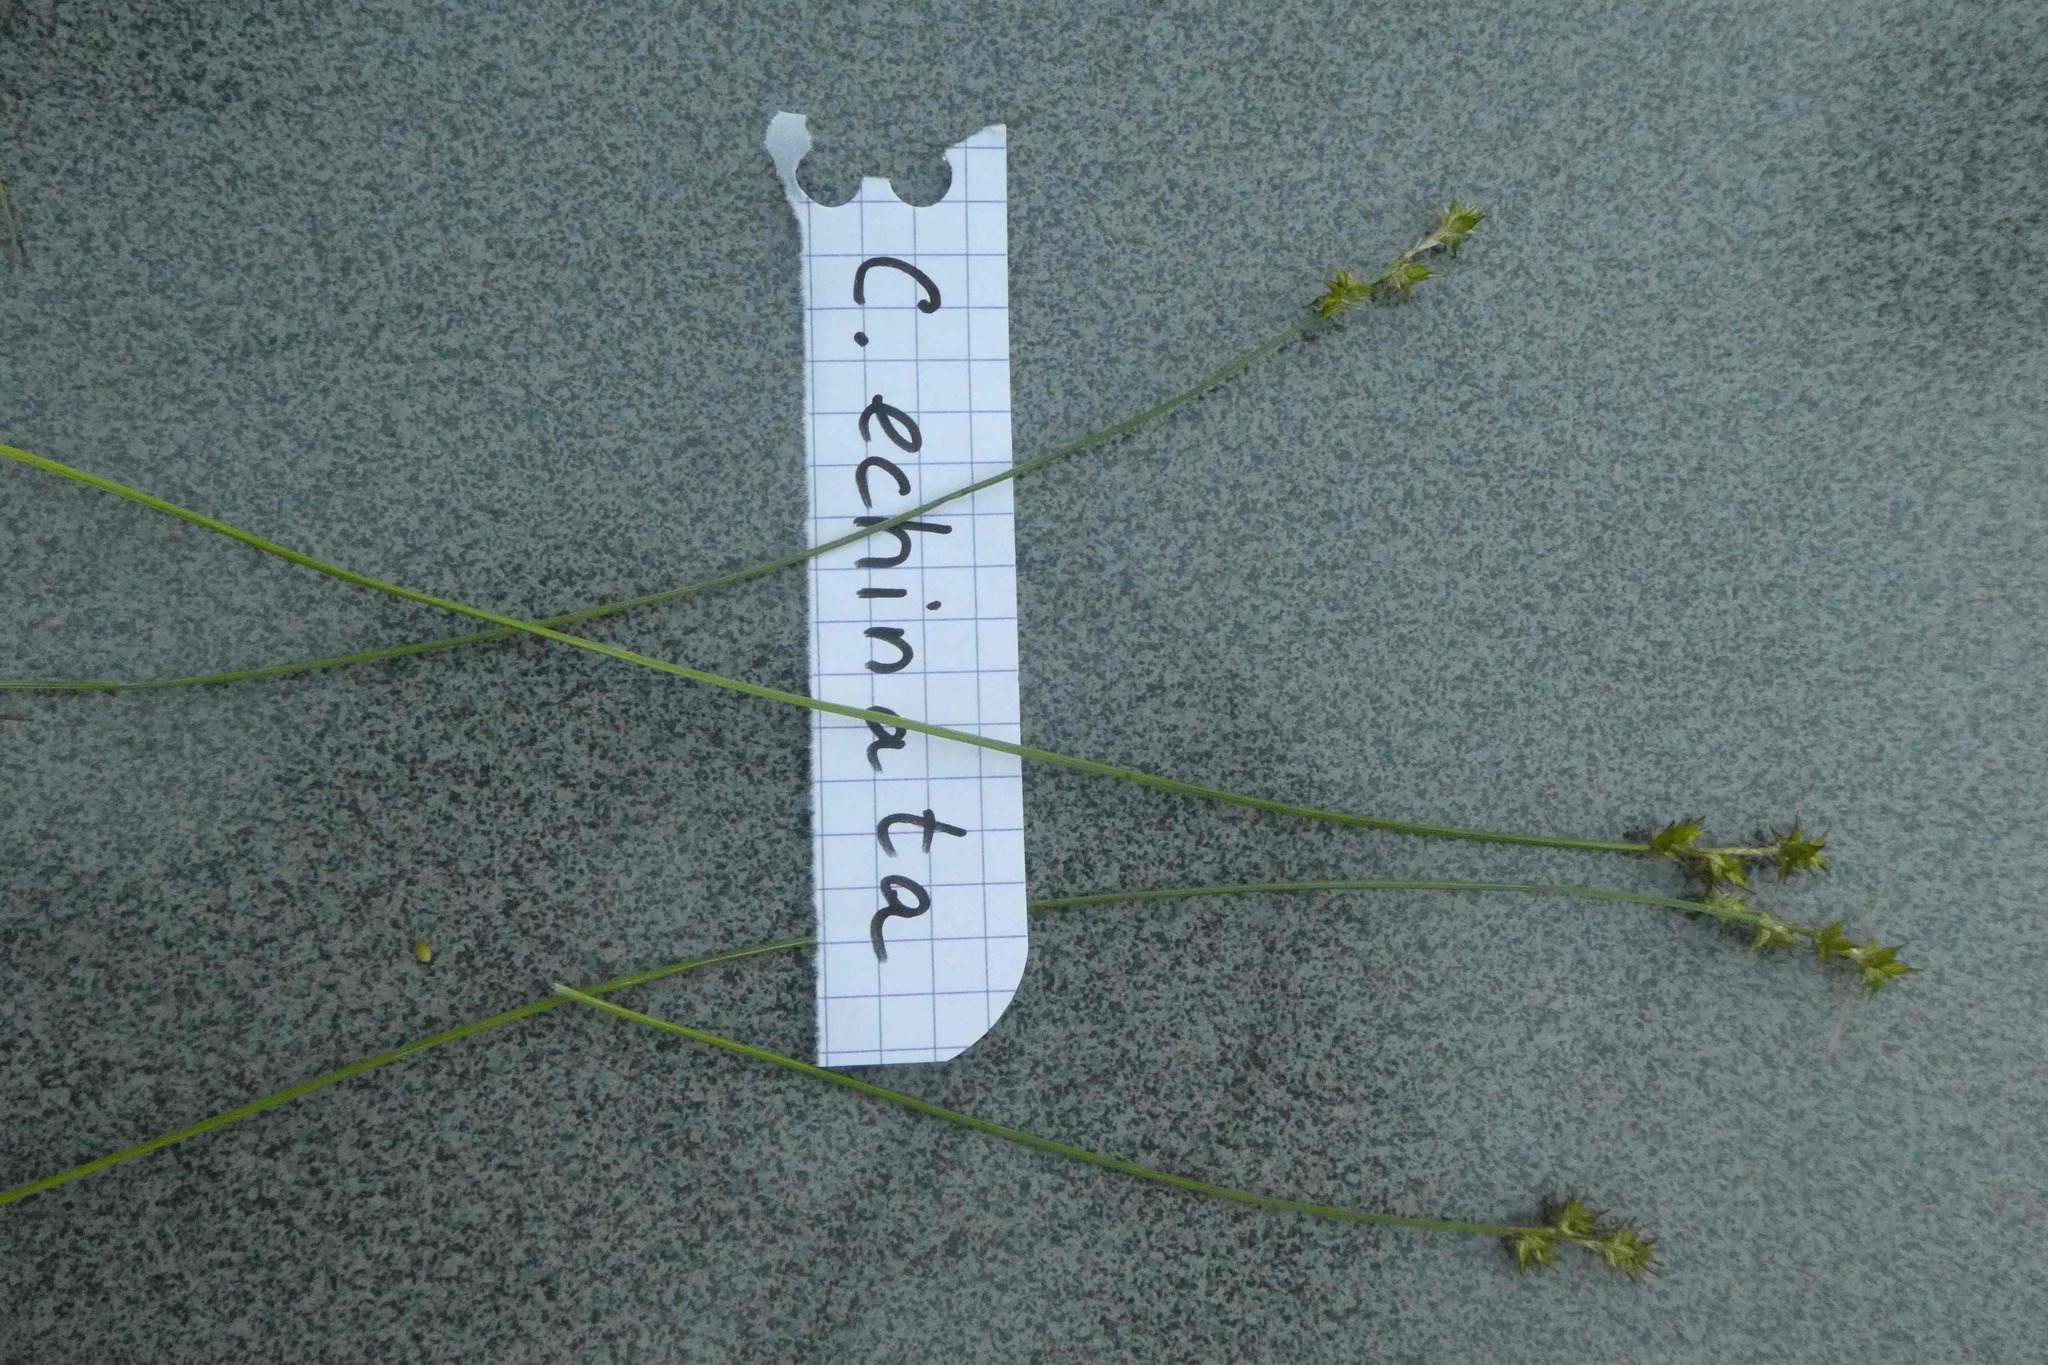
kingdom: Plantae
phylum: Tracheophyta
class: Liliopsida
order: Poales
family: Cyperaceae
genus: Carex
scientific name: Carex echinata
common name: Star sedge
